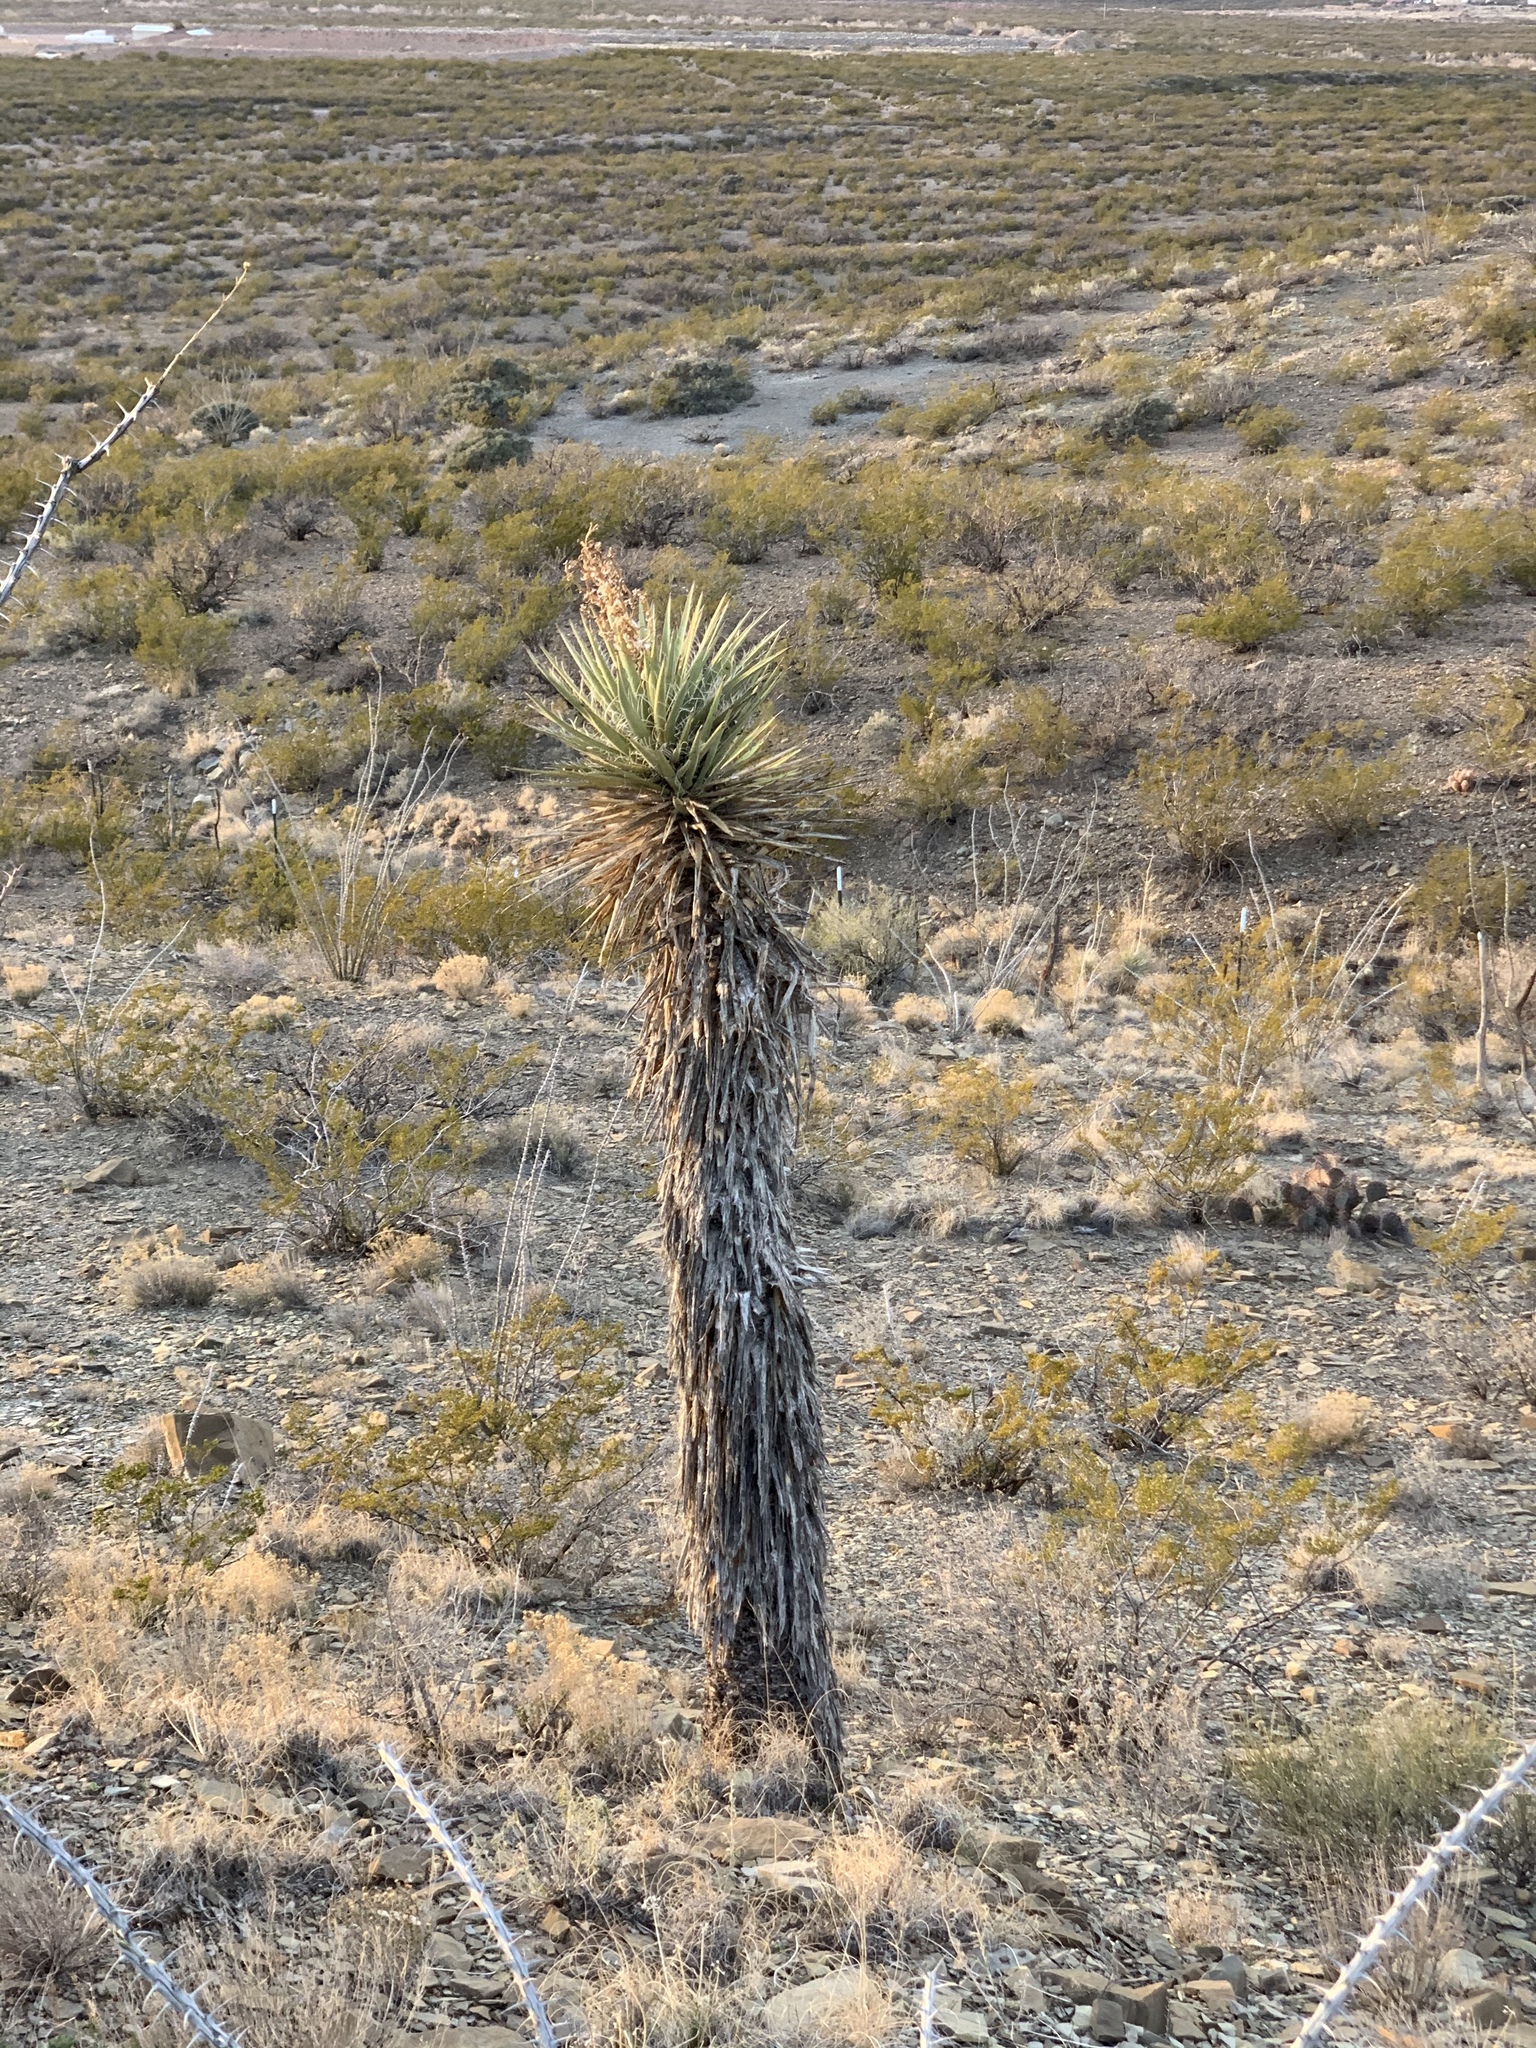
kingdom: Plantae
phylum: Tracheophyta
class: Liliopsida
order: Asparagales
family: Asparagaceae
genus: Yucca
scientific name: Yucca treculiana
